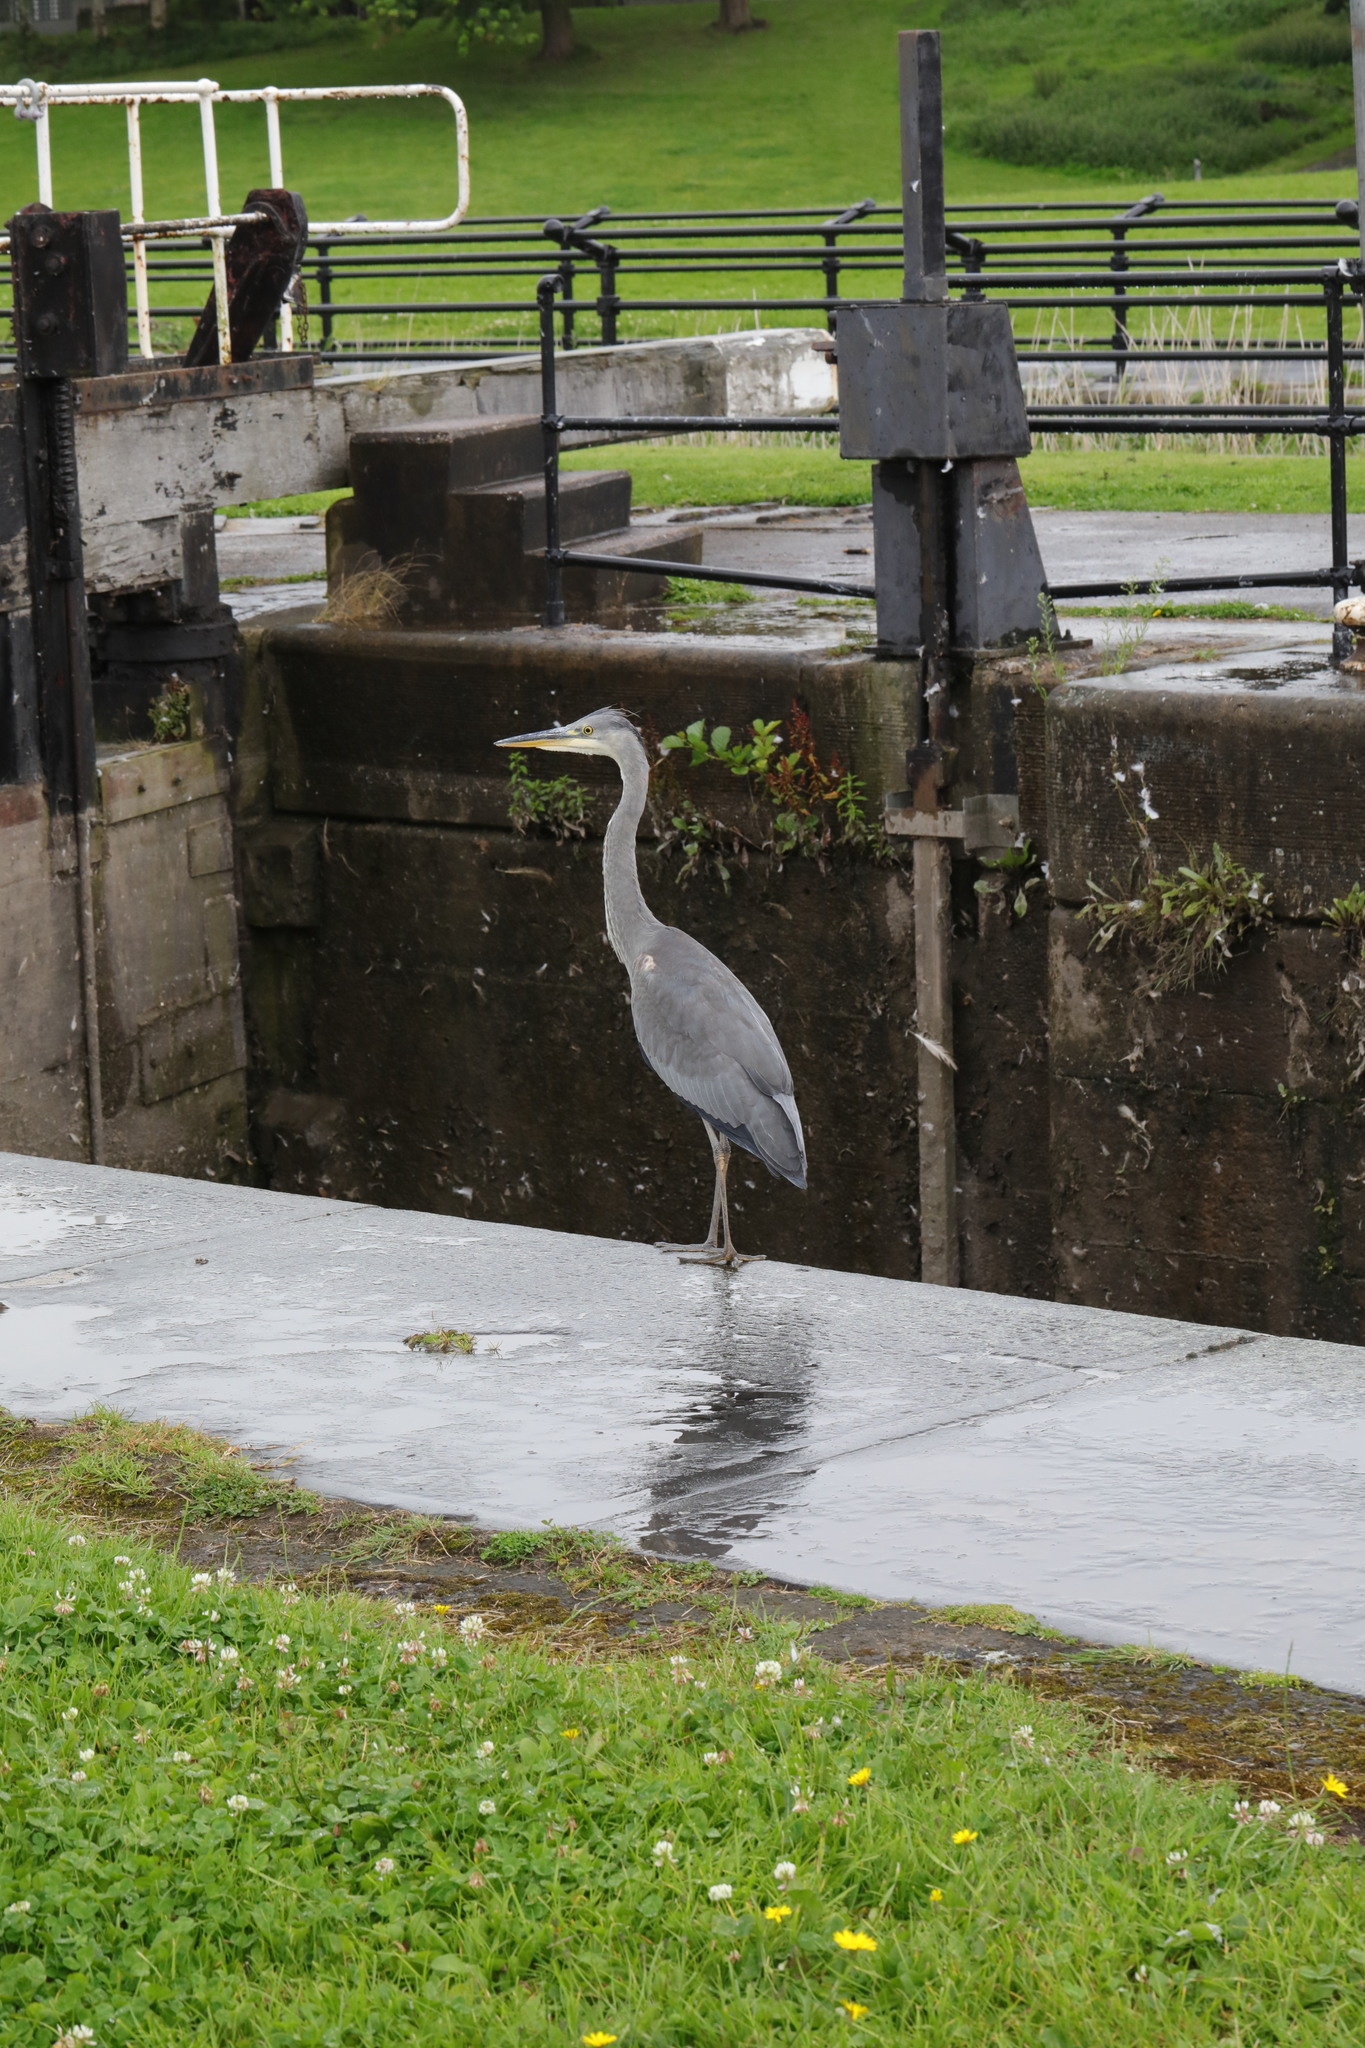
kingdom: Animalia
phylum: Chordata
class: Aves
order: Pelecaniformes
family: Ardeidae
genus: Ardea
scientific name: Ardea cinerea
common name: Grey heron
